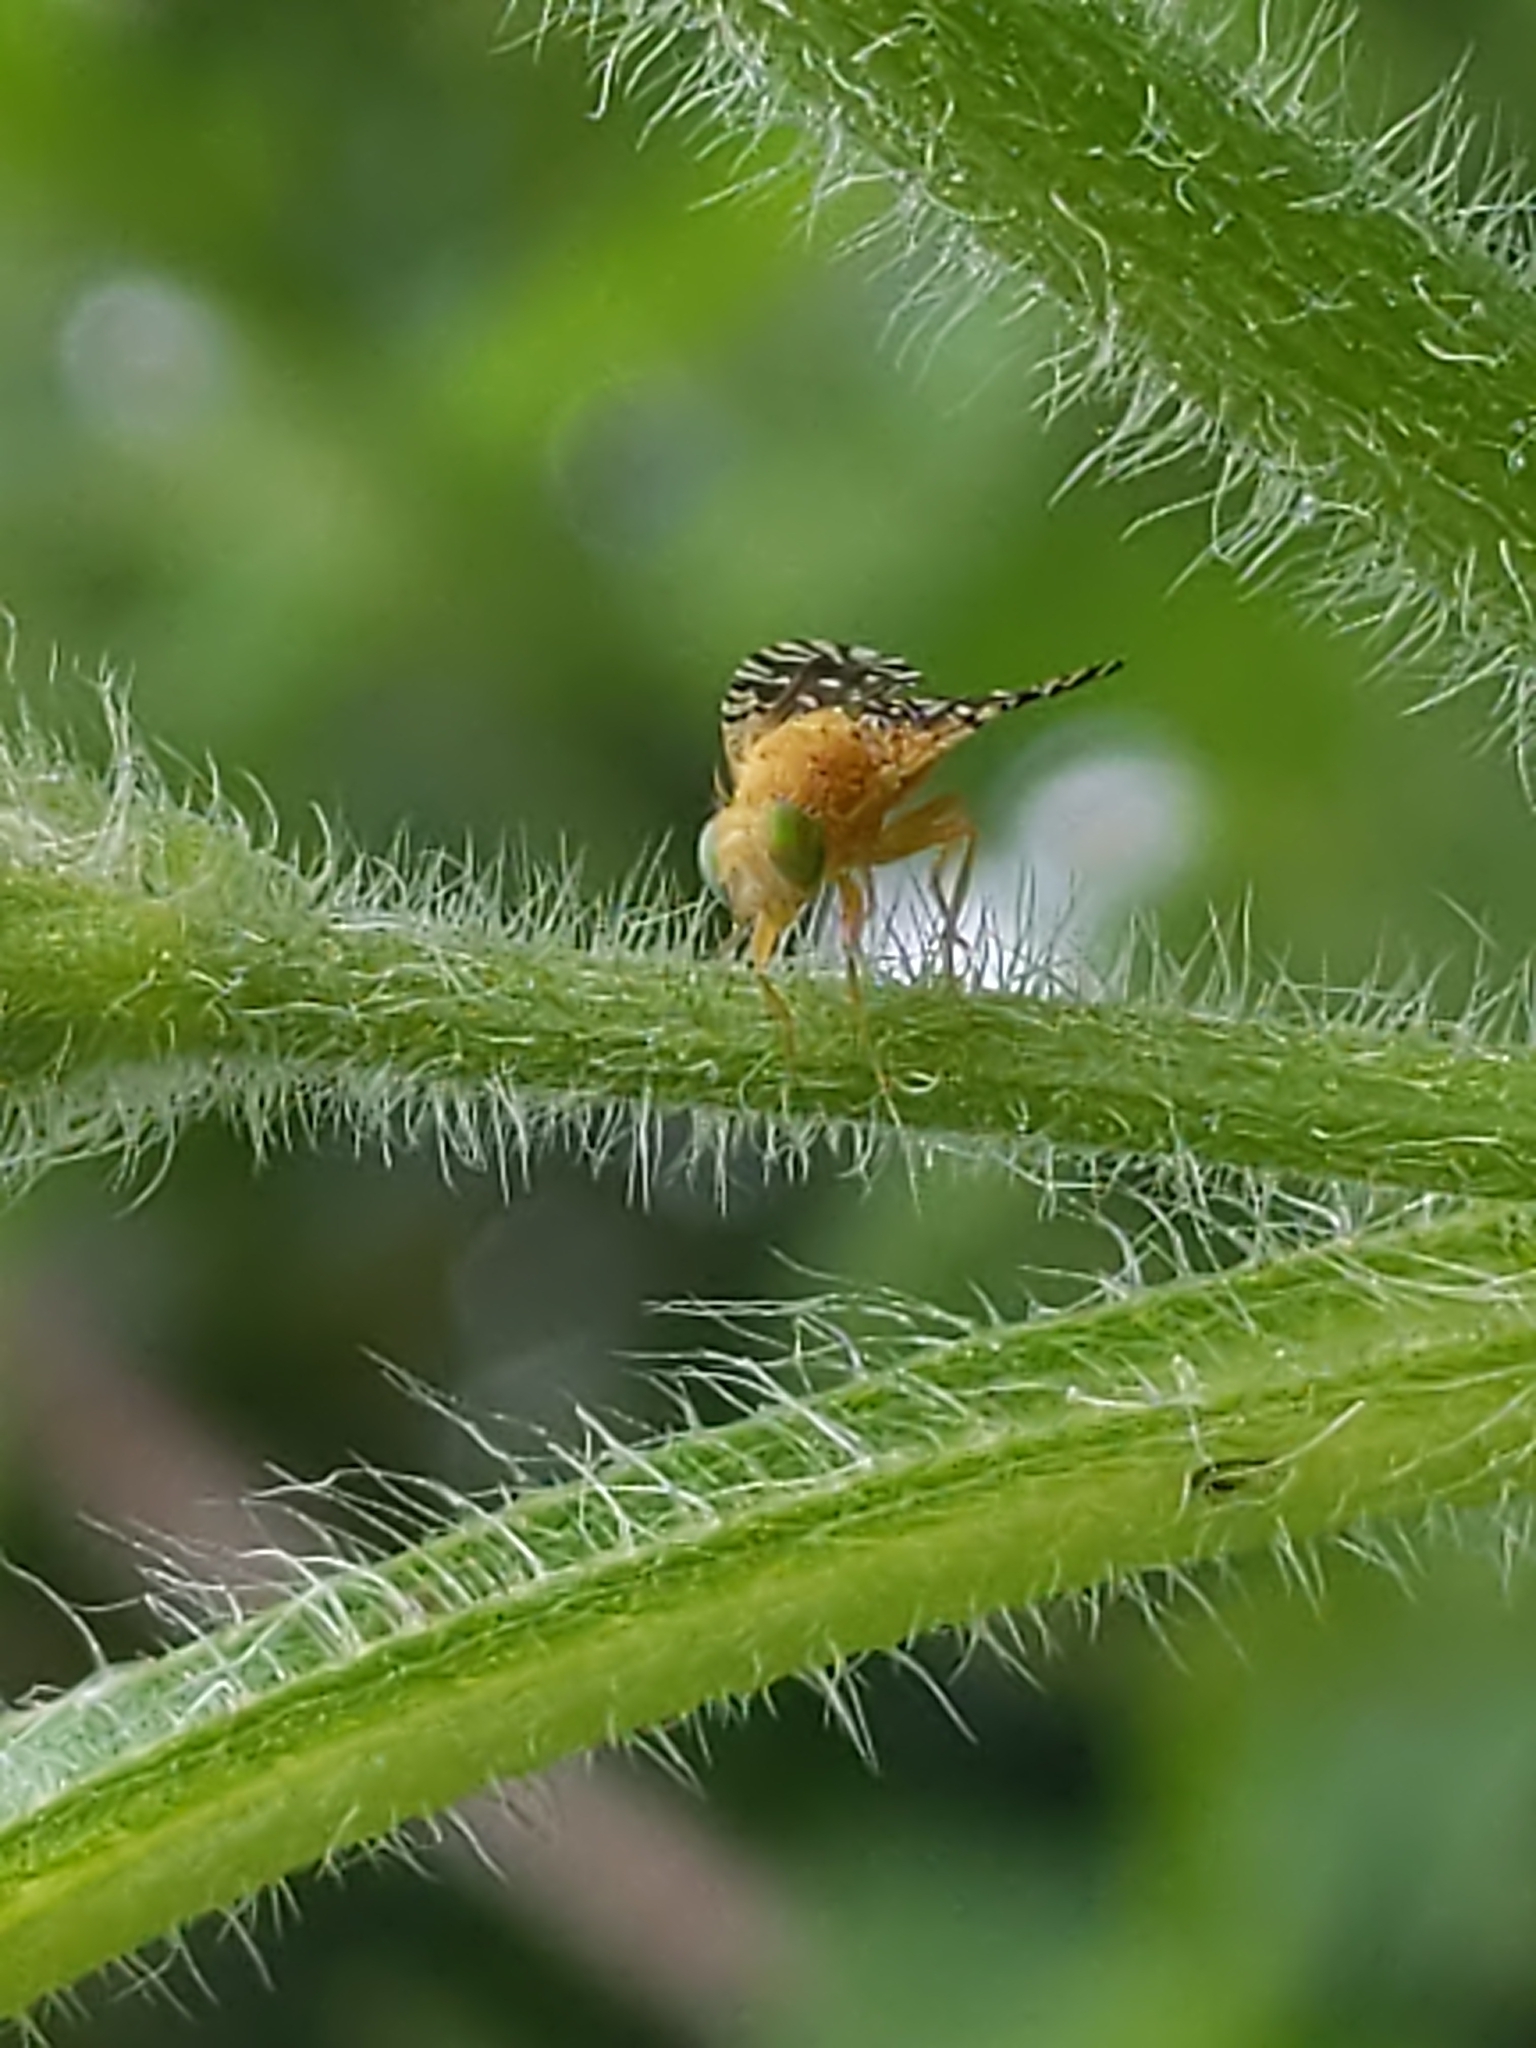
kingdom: Animalia
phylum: Arthropoda
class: Insecta
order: Diptera
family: Tephritidae
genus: Euaresta
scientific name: Euaresta festiva
